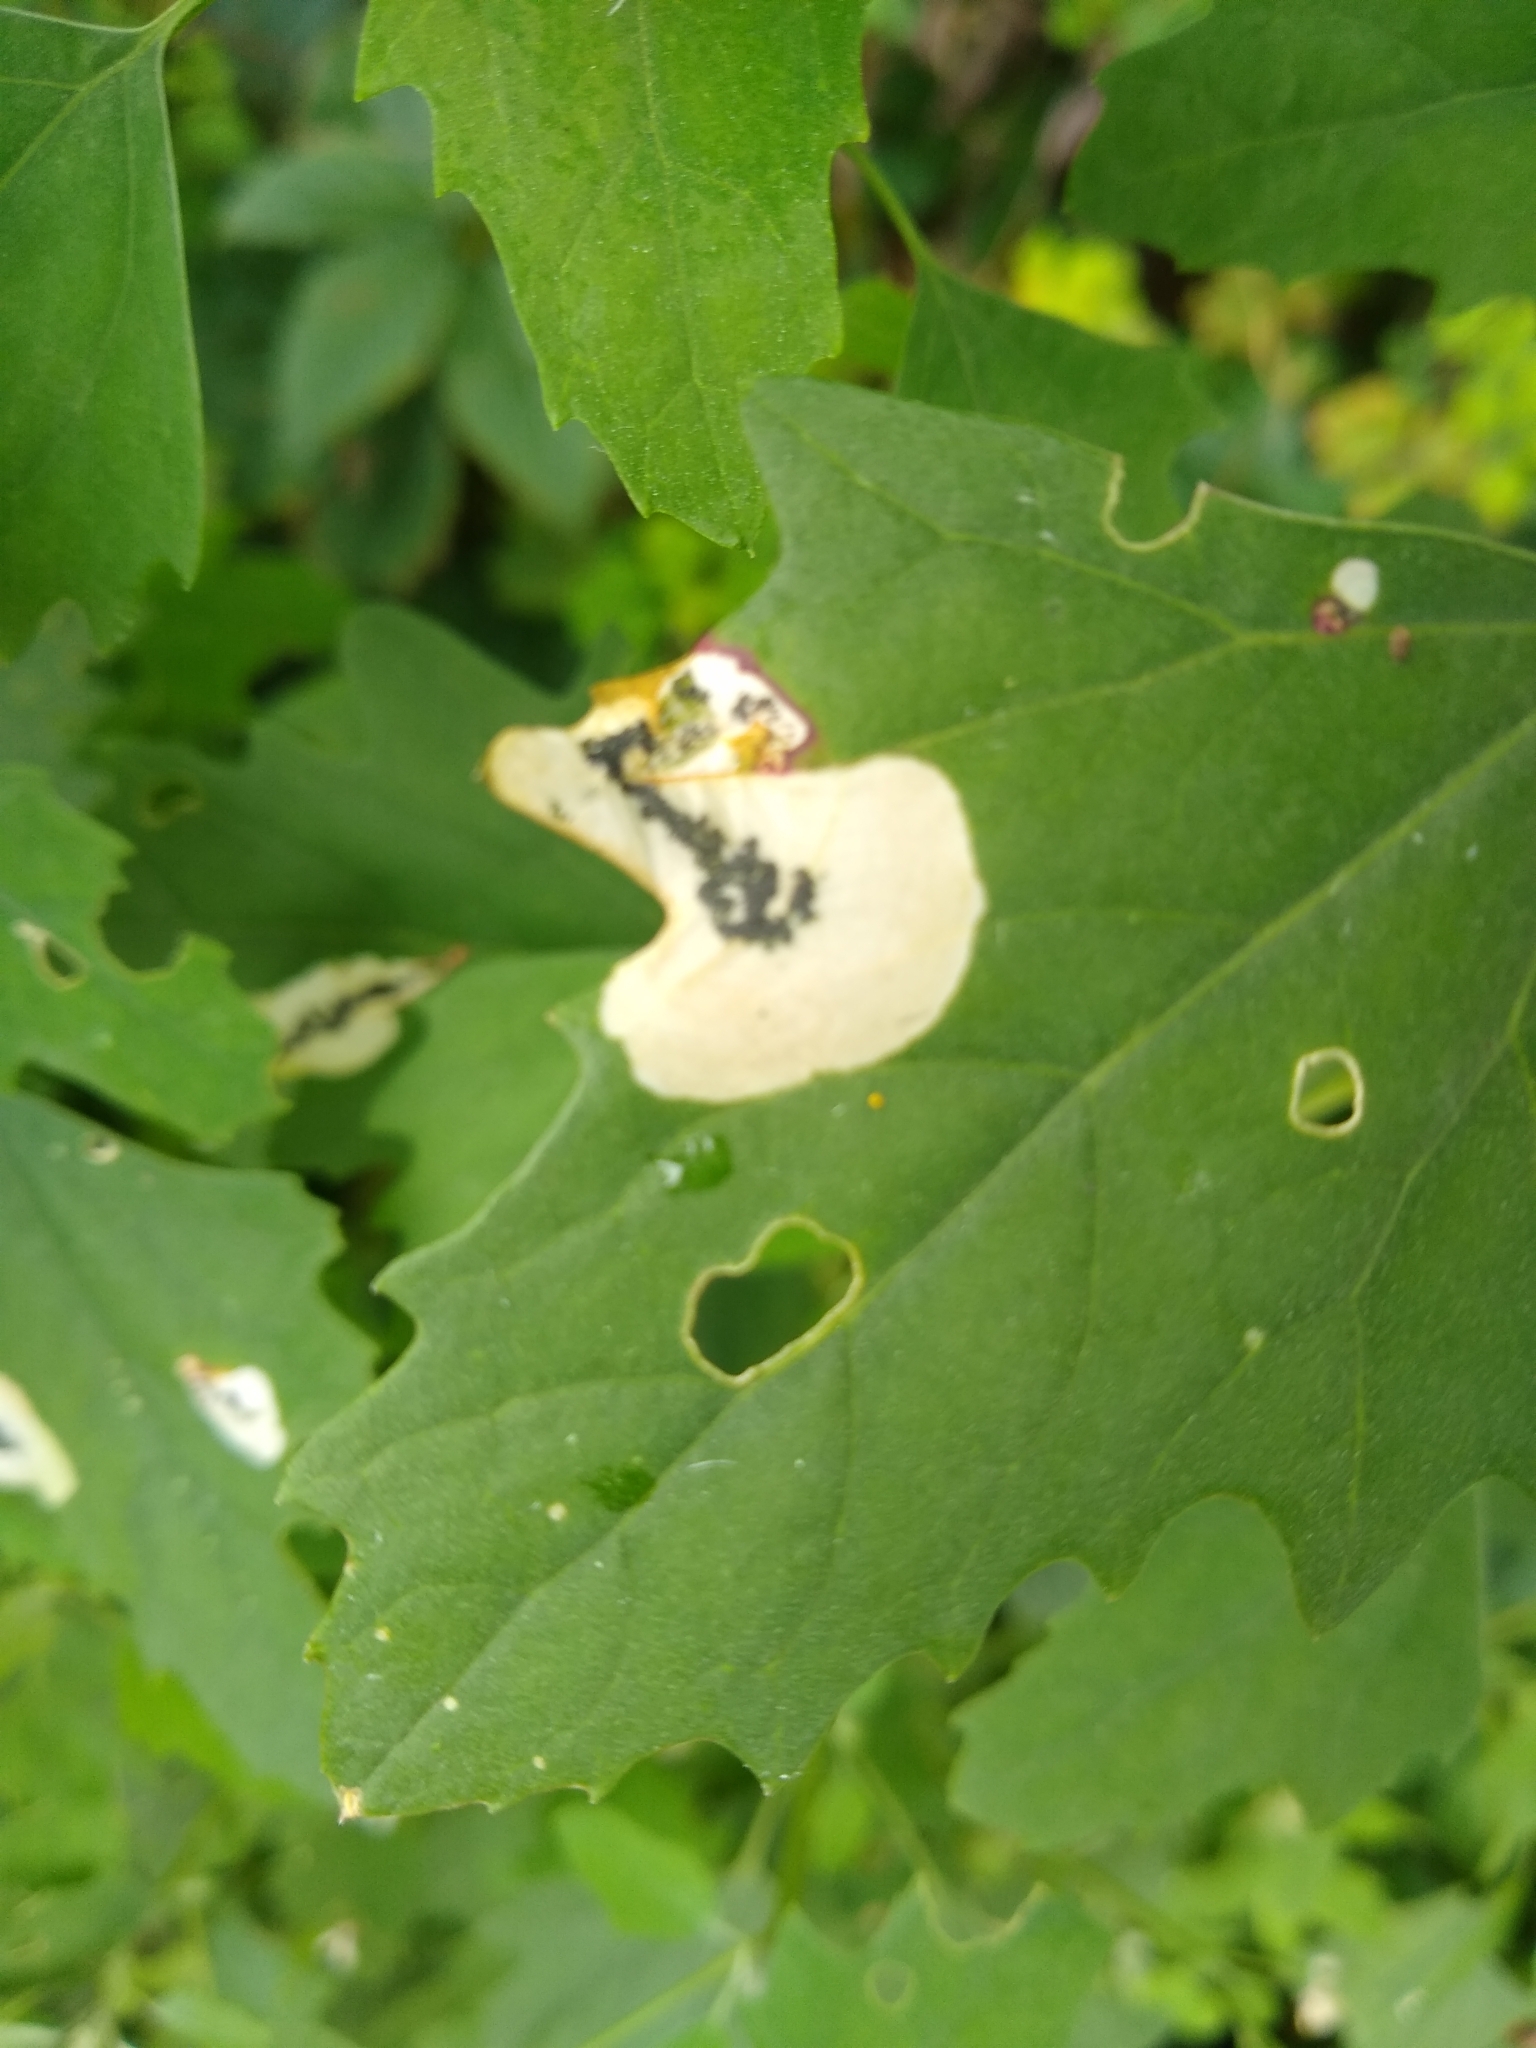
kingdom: Animalia
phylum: Arthropoda
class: Insecta
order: Lepidoptera
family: Gelechiidae
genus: Chrysoesthia
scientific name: Chrysoesthia sexguttella
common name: Moth
